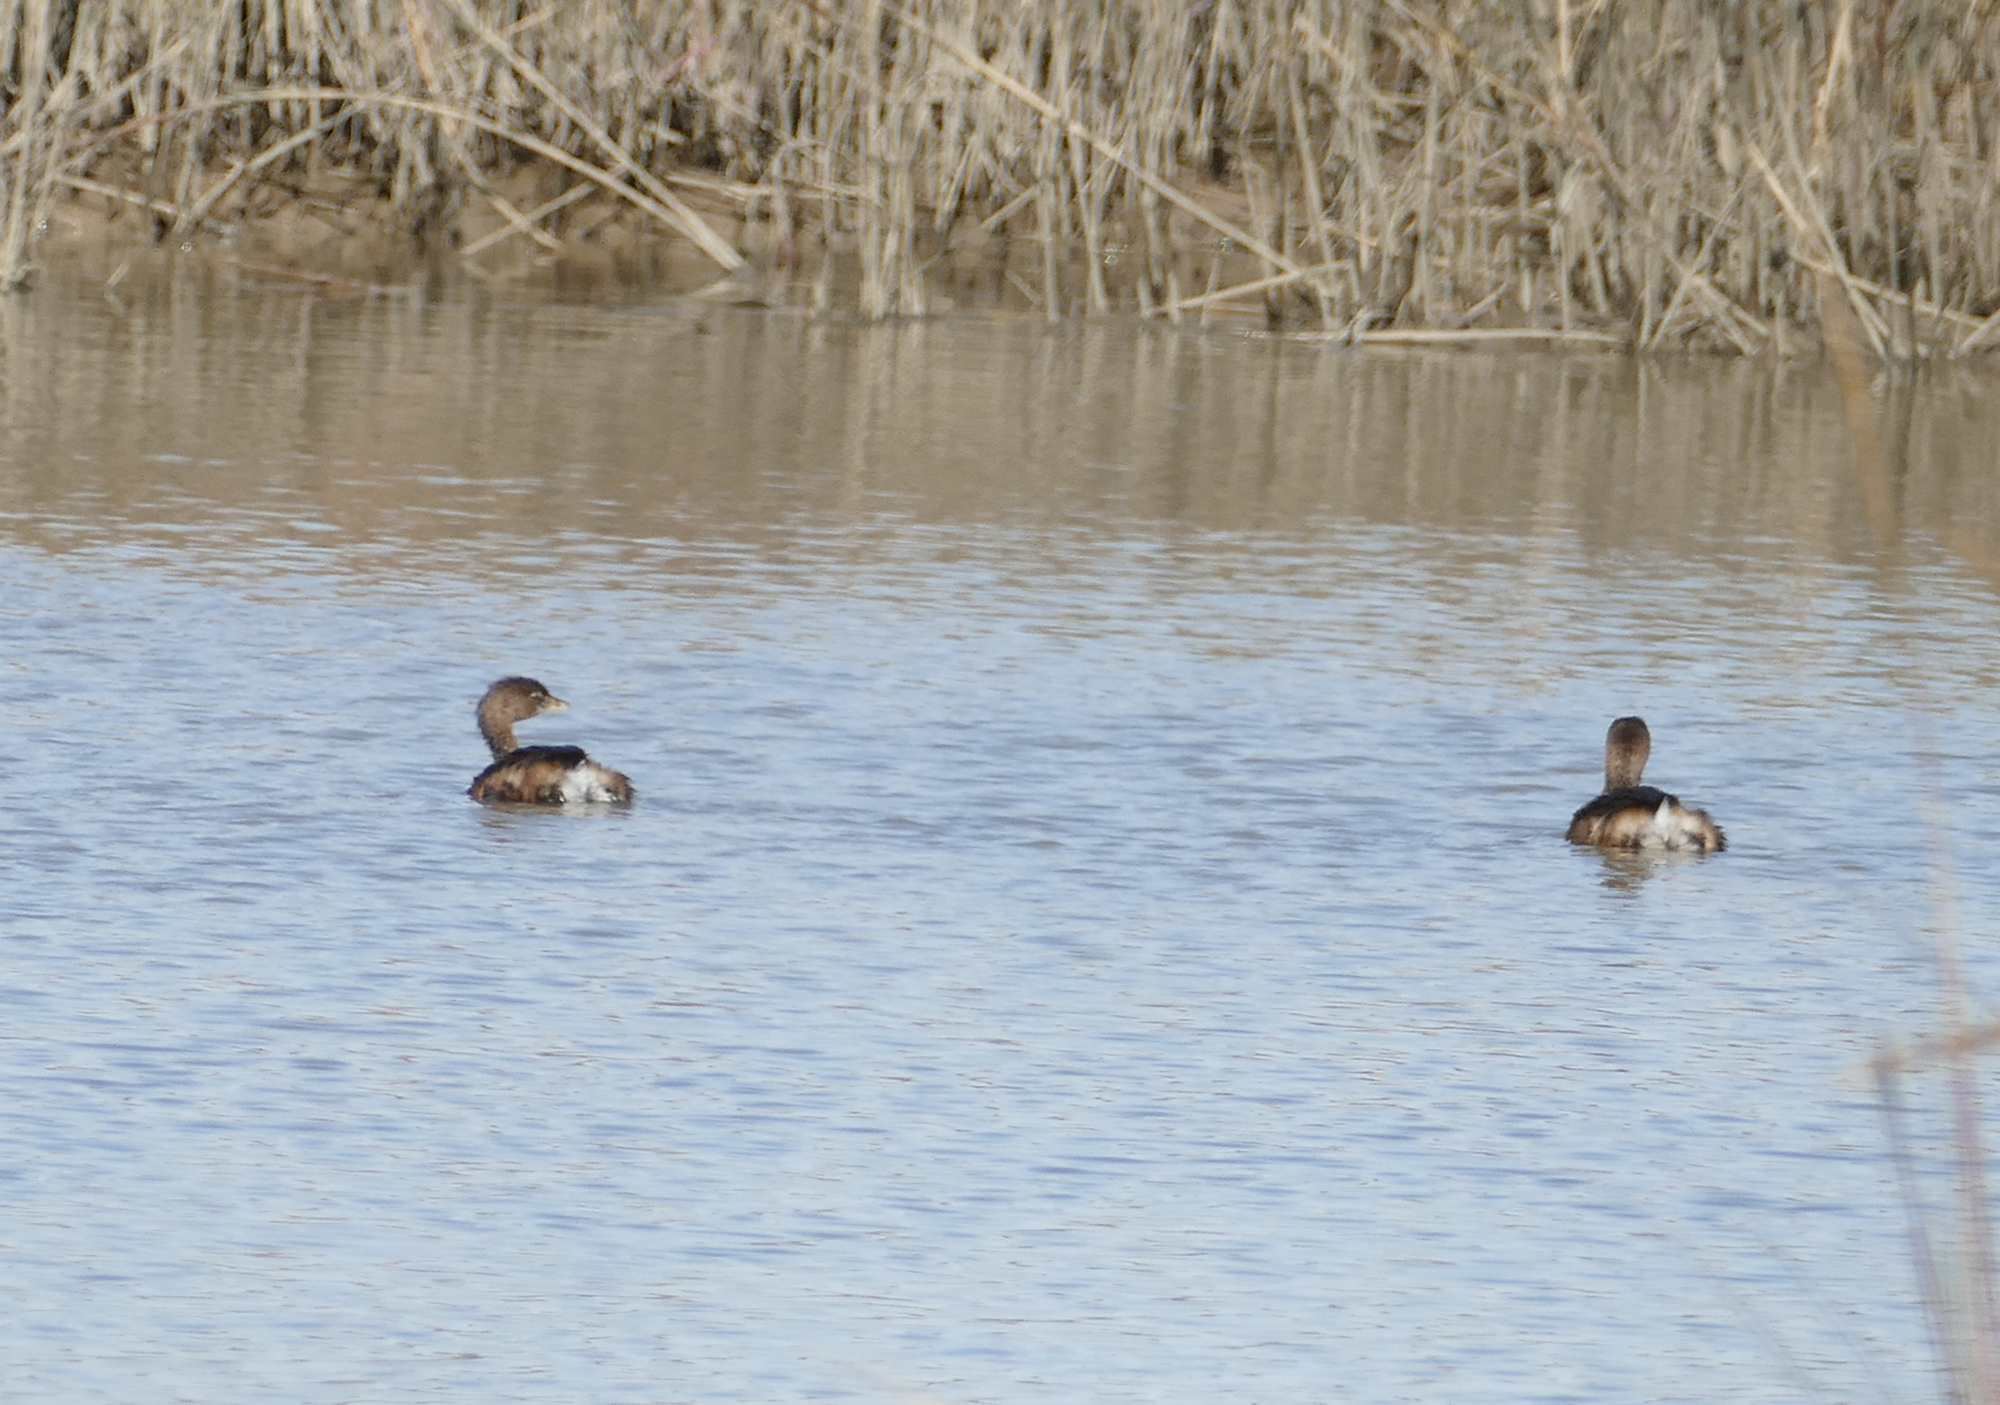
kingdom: Animalia
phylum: Chordata
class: Aves
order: Podicipediformes
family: Podicipedidae
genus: Podilymbus
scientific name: Podilymbus podiceps
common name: Pied-billed grebe
